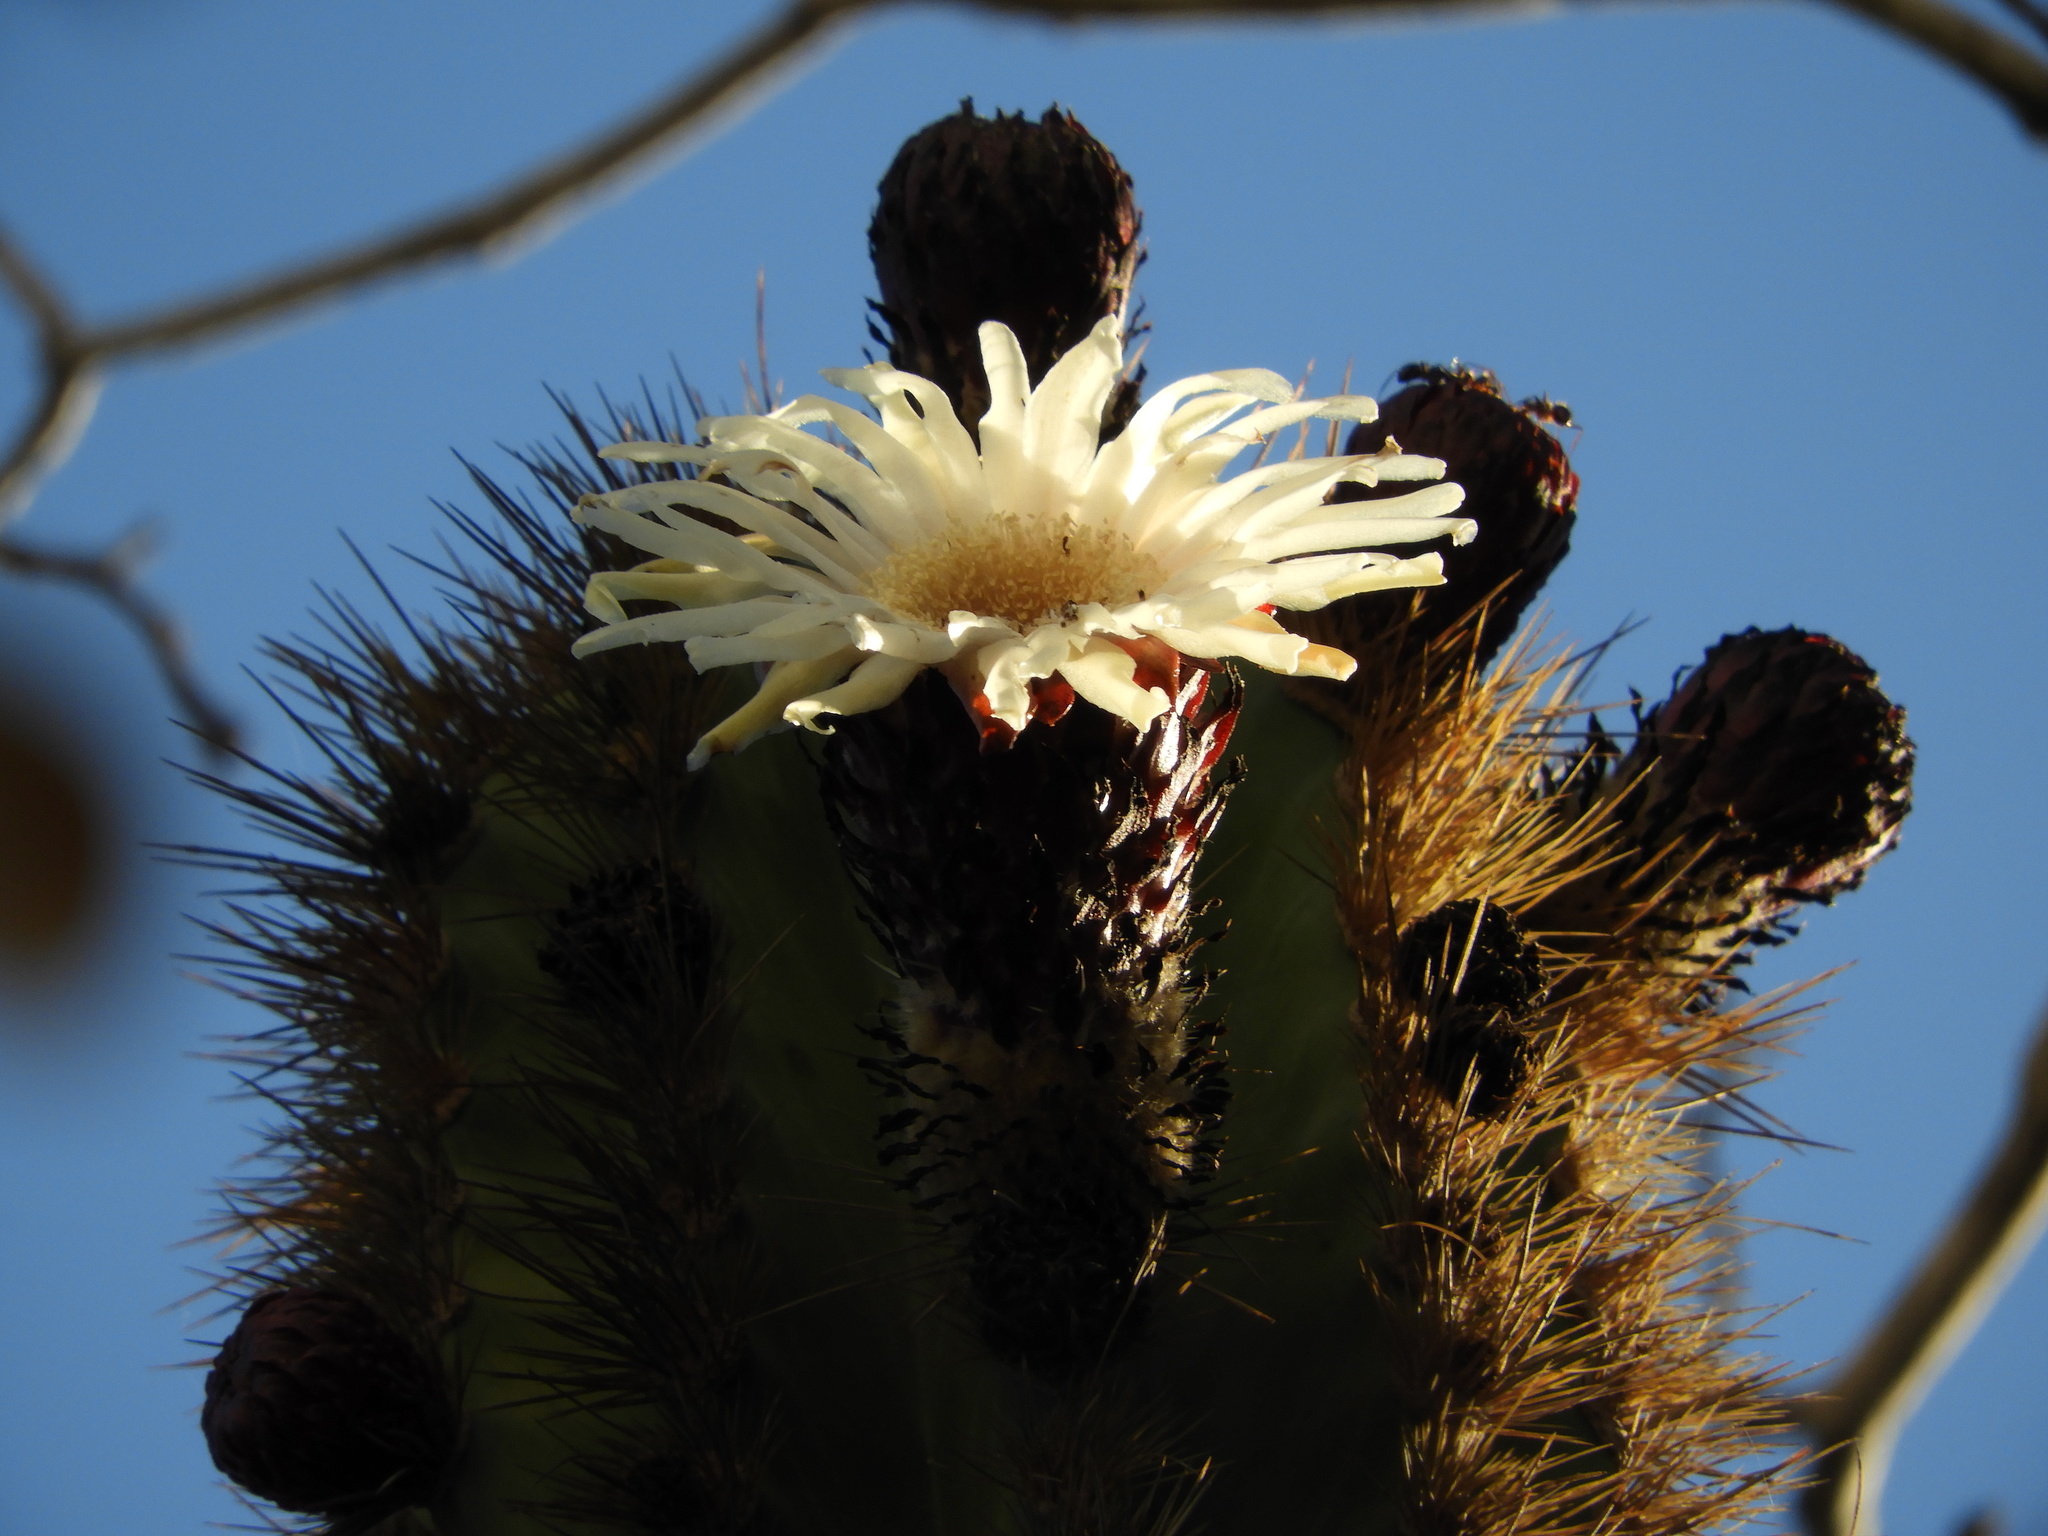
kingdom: Plantae
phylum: Tracheophyta
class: Magnoliopsida
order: Caryophyllales
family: Cactaceae
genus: Pachycereus
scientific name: Pachycereus pecten-aboriginum
